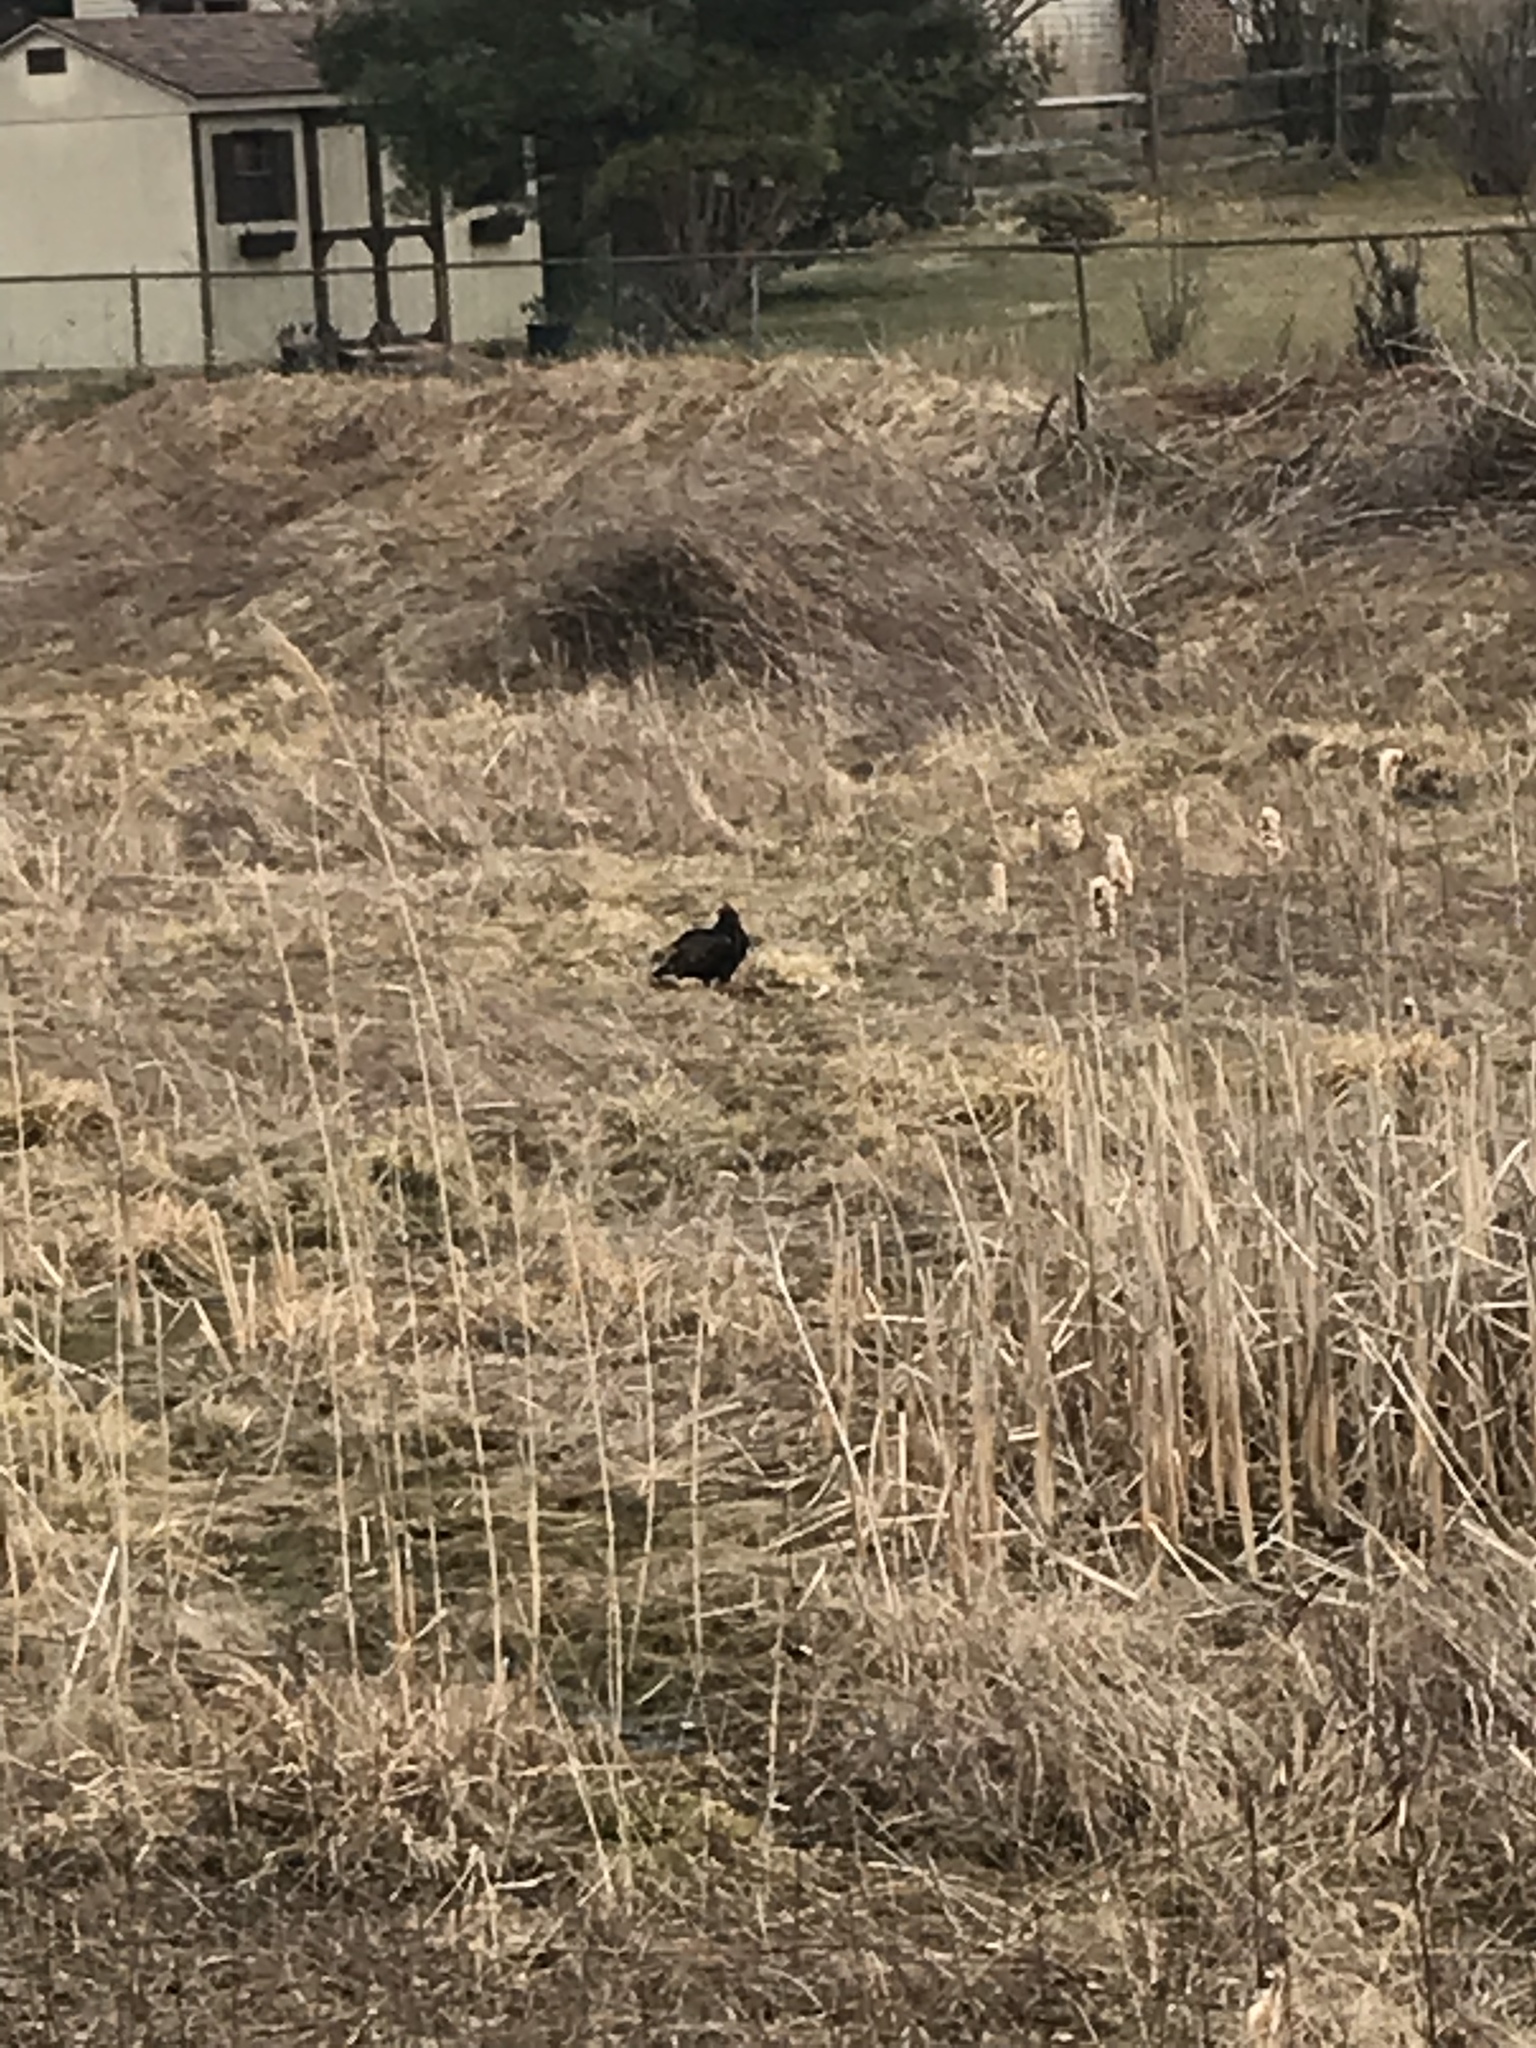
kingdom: Animalia
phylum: Chordata
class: Aves
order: Accipitriformes
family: Cathartidae
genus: Cathartes
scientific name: Cathartes aura
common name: Turkey vulture
